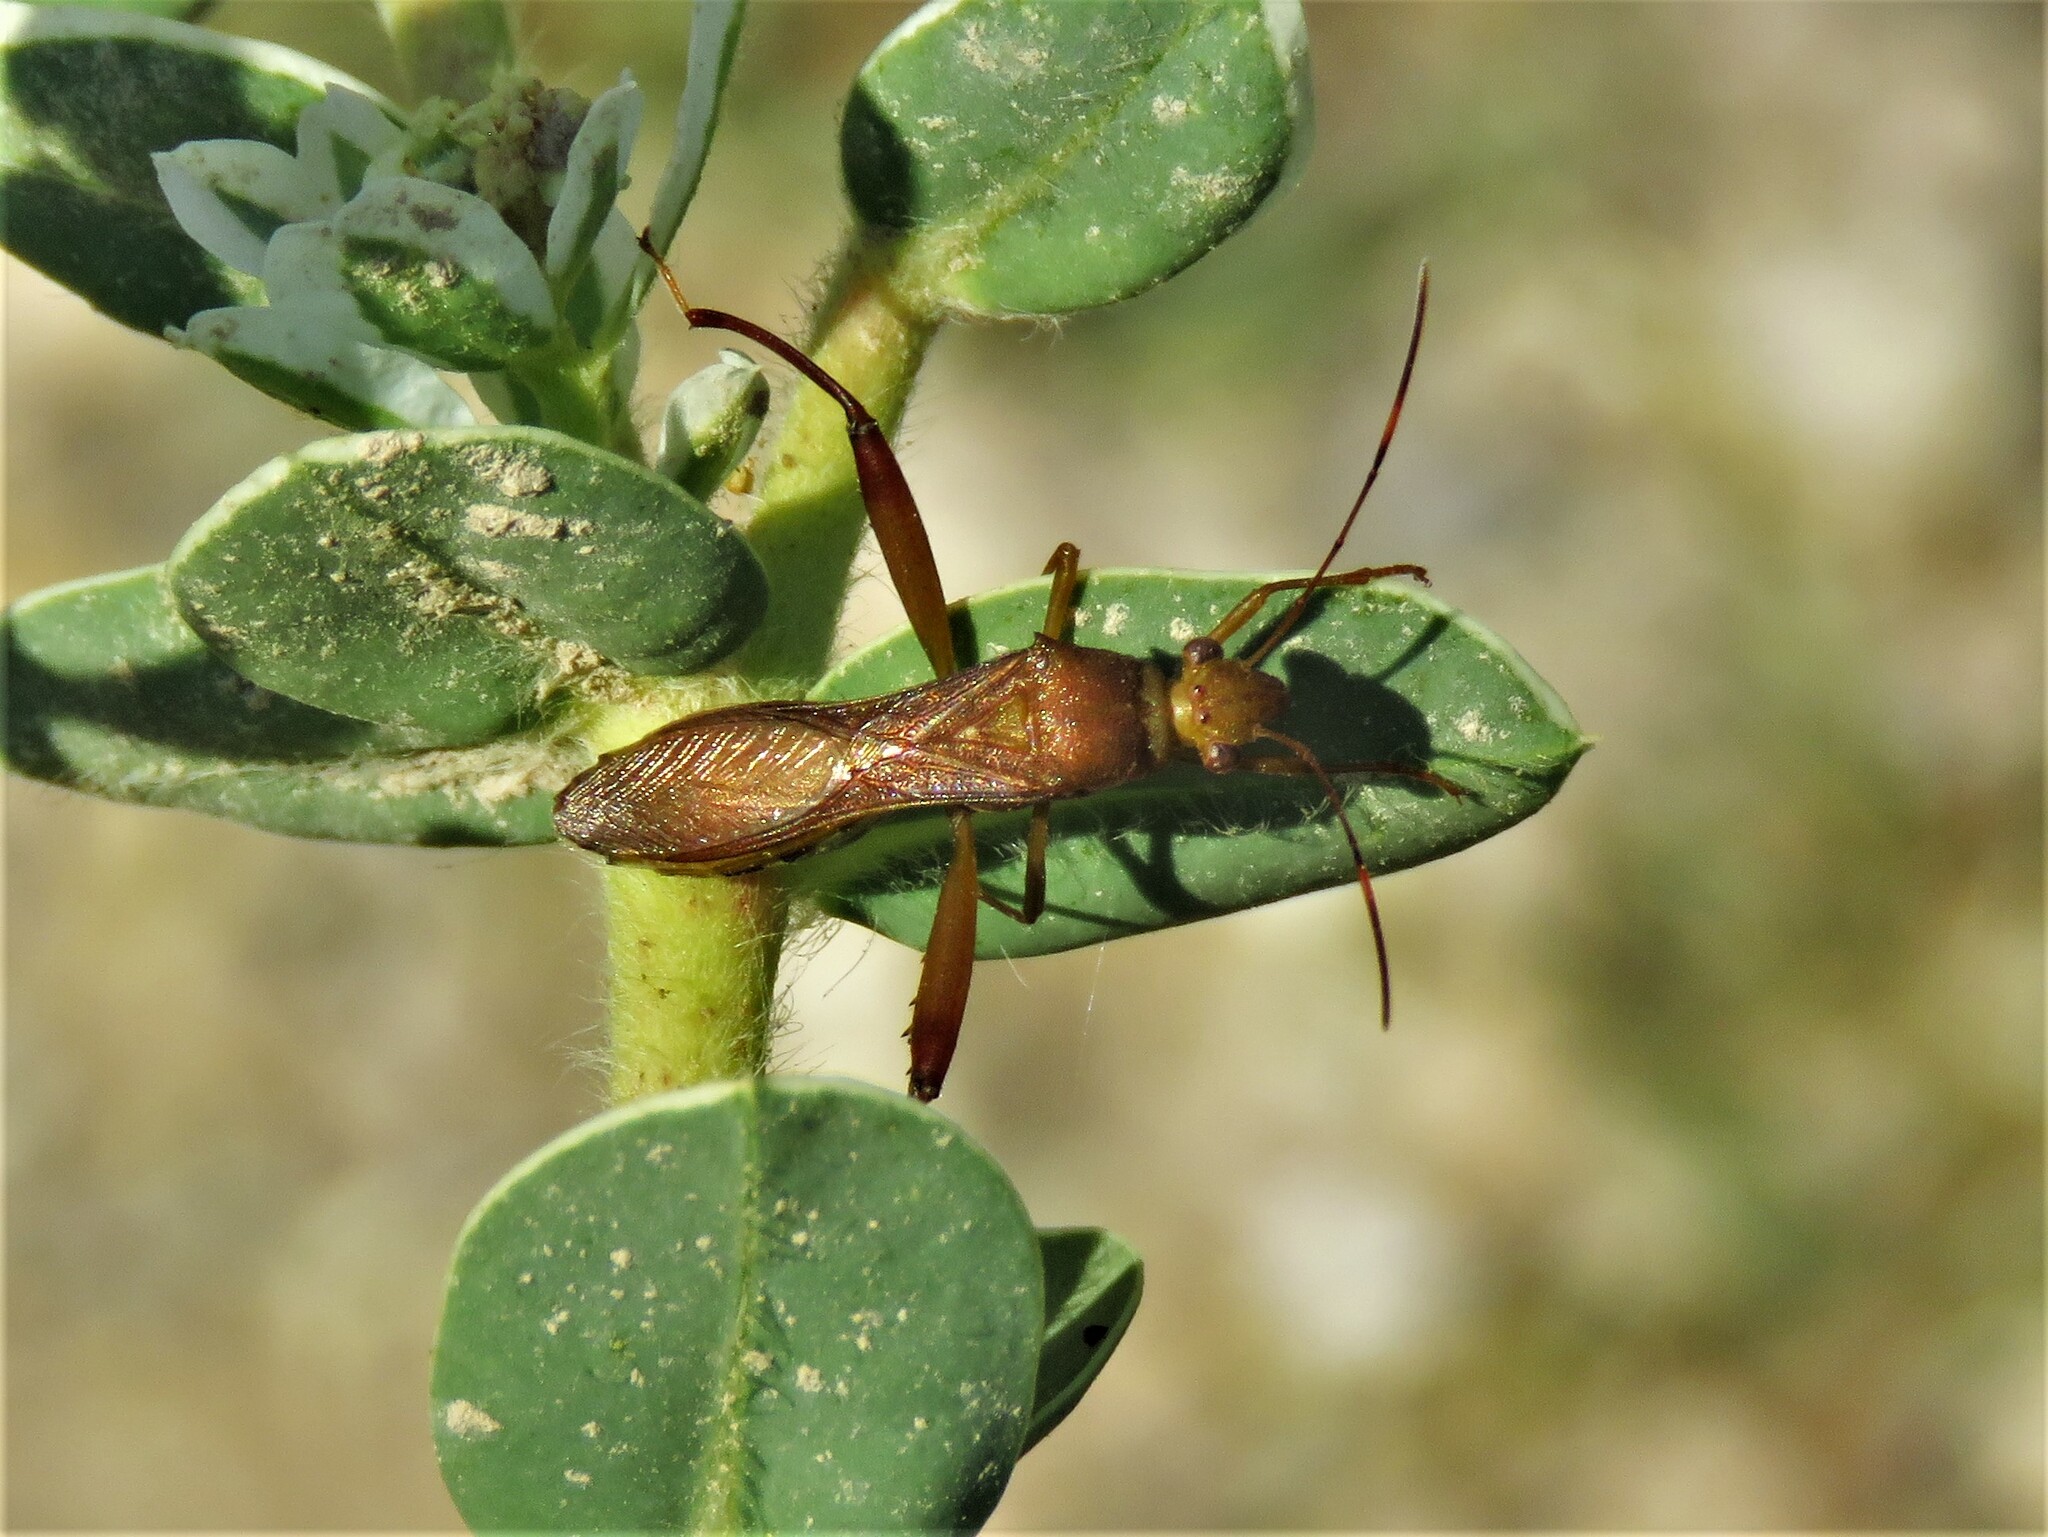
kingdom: Animalia
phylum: Arthropoda
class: Insecta
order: Hemiptera
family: Alydidae
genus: Hyalymenus
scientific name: Hyalymenus tarsatus
